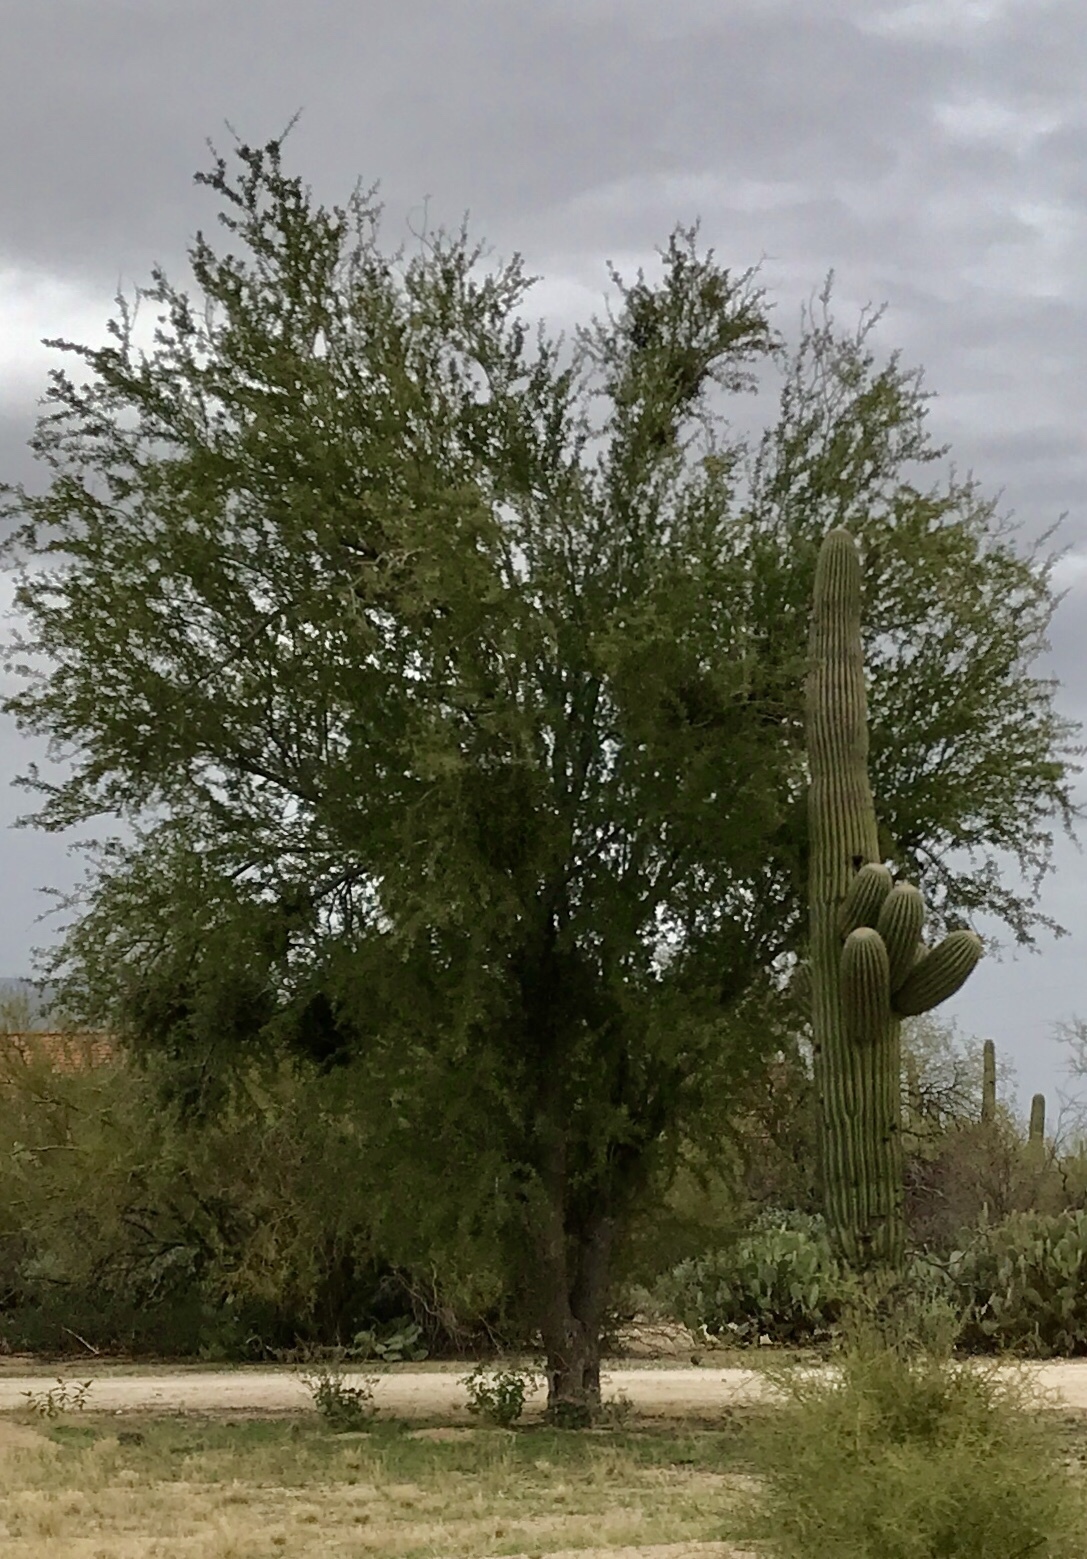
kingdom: Plantae
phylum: Tracheophyta
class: Magnoliopsida
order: Fabales
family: Fabaceae
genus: Olneya
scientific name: Olneya tesota
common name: Desert ironwood
